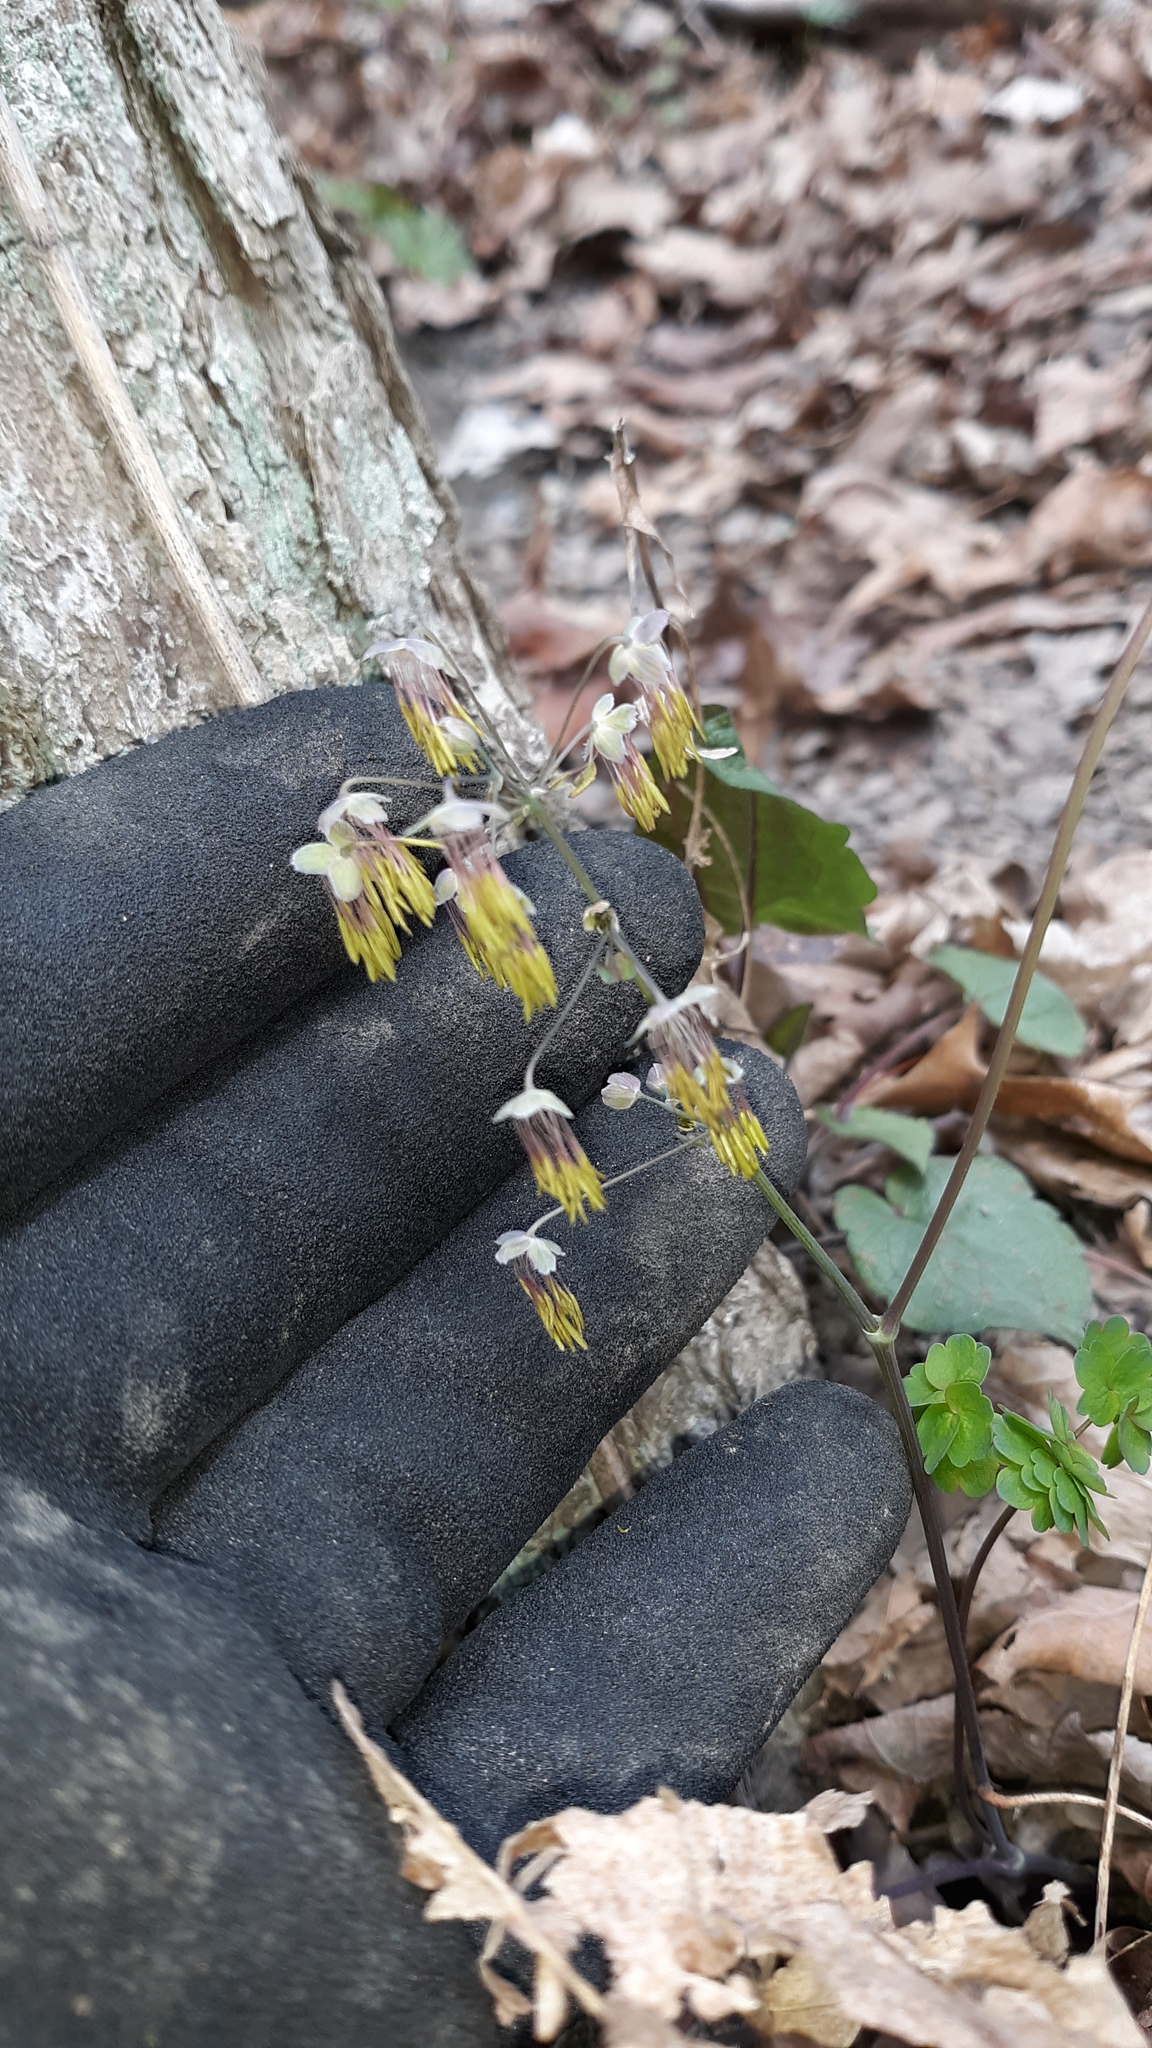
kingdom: Plantae
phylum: Tracheophyta
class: Magnoliopsida
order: Ranunculales
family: Ranunculaceae
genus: Thalictrum
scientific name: Thalictrum dioicum
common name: Early meadow-rue
